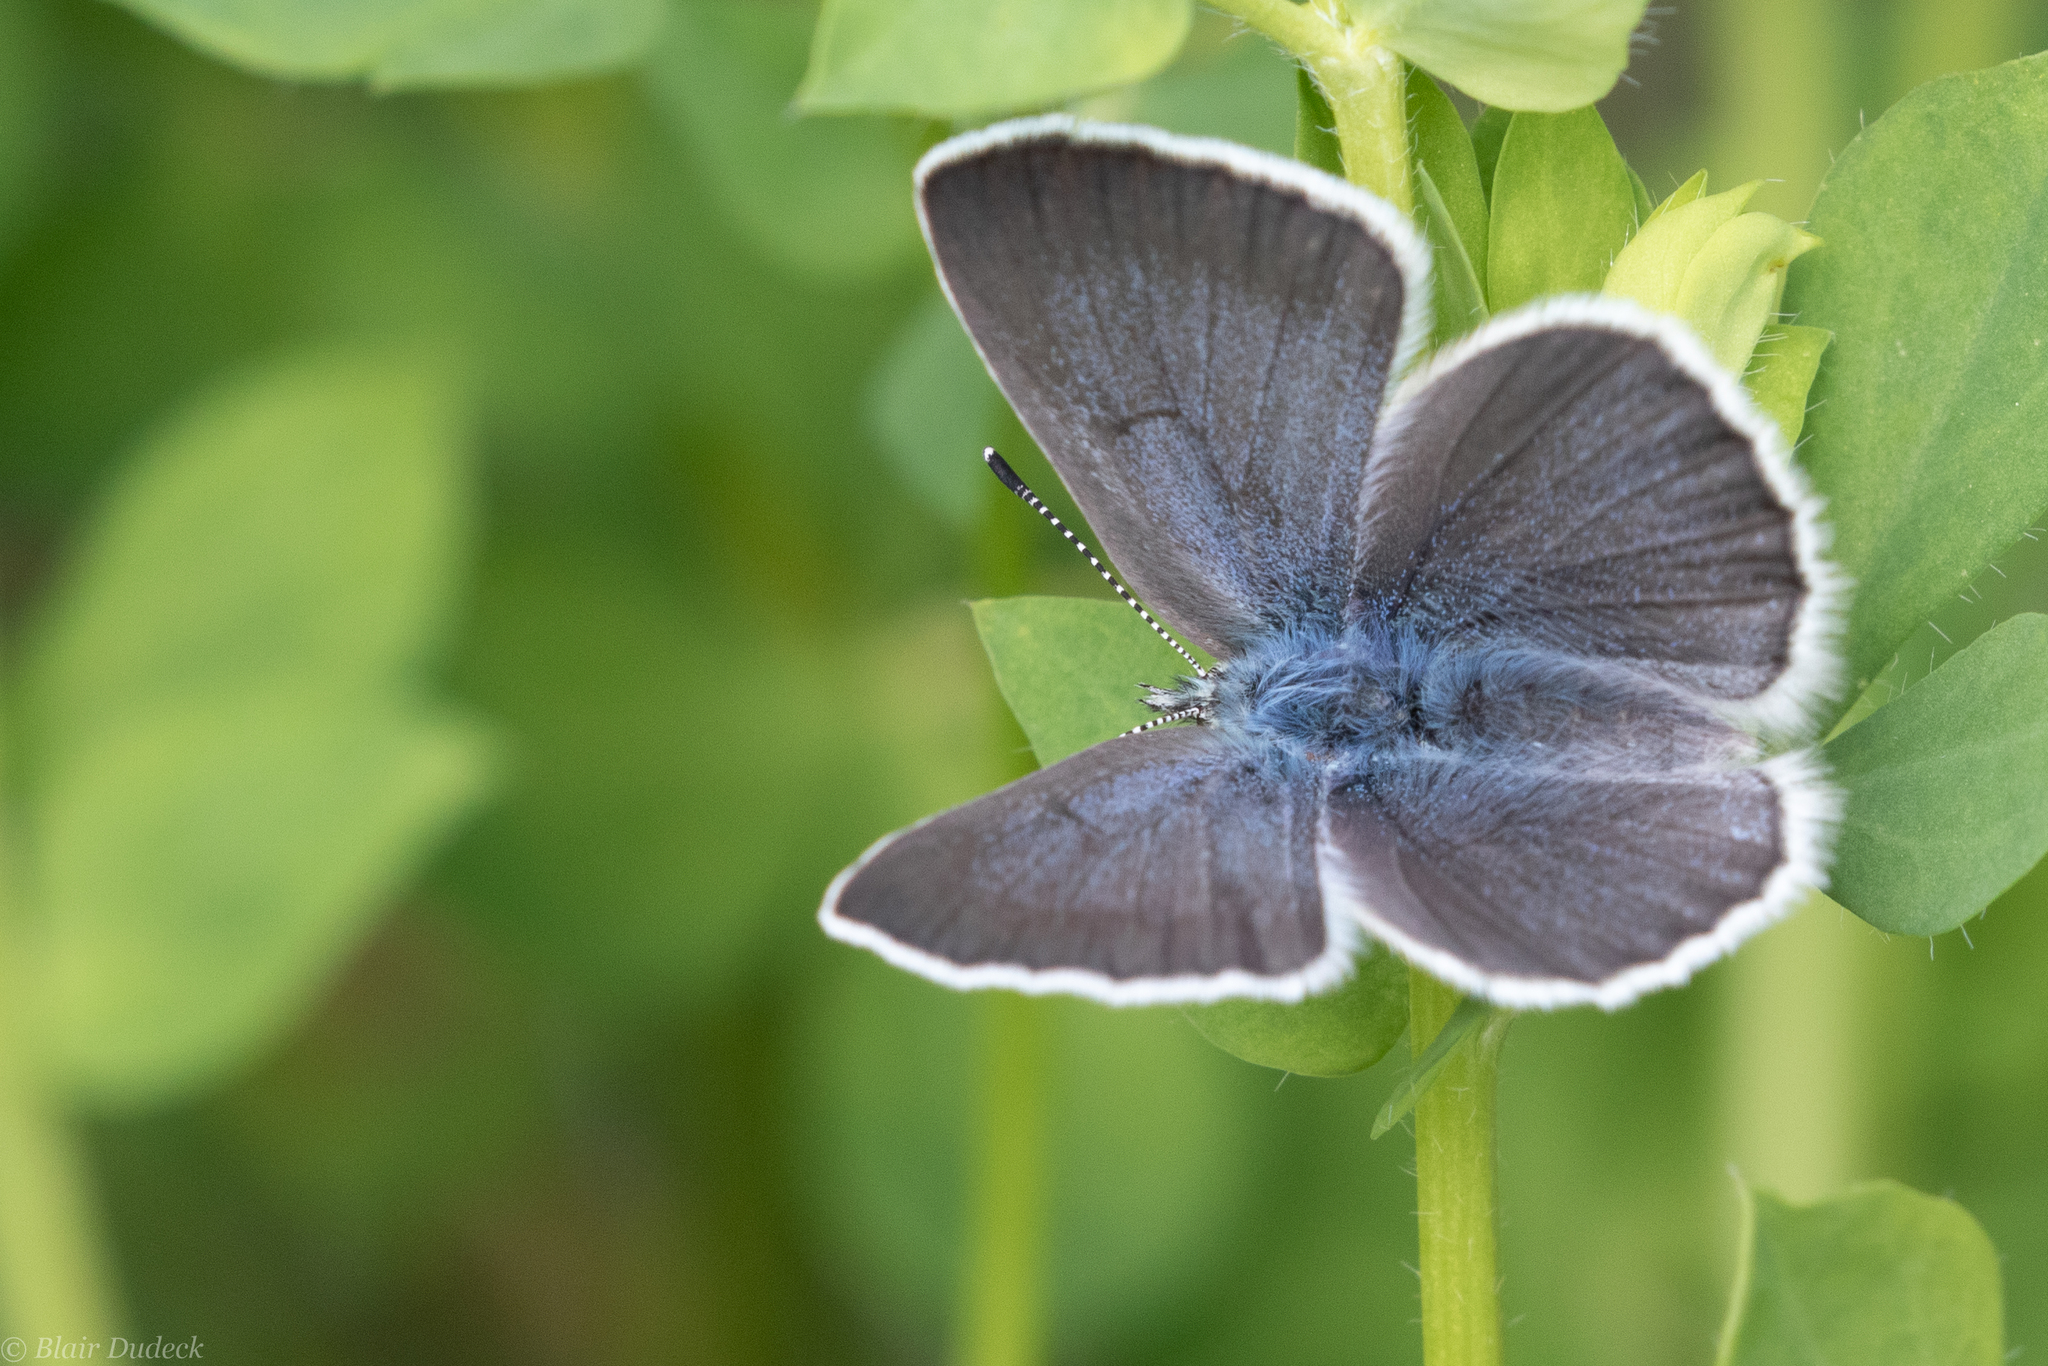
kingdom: Animalia
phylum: Arthropoda
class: Insecta
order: Lepidoptera
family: Lycaenidae
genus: Glaucopsyche
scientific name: Glaucopsyche lygdamus
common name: Silvery blue
